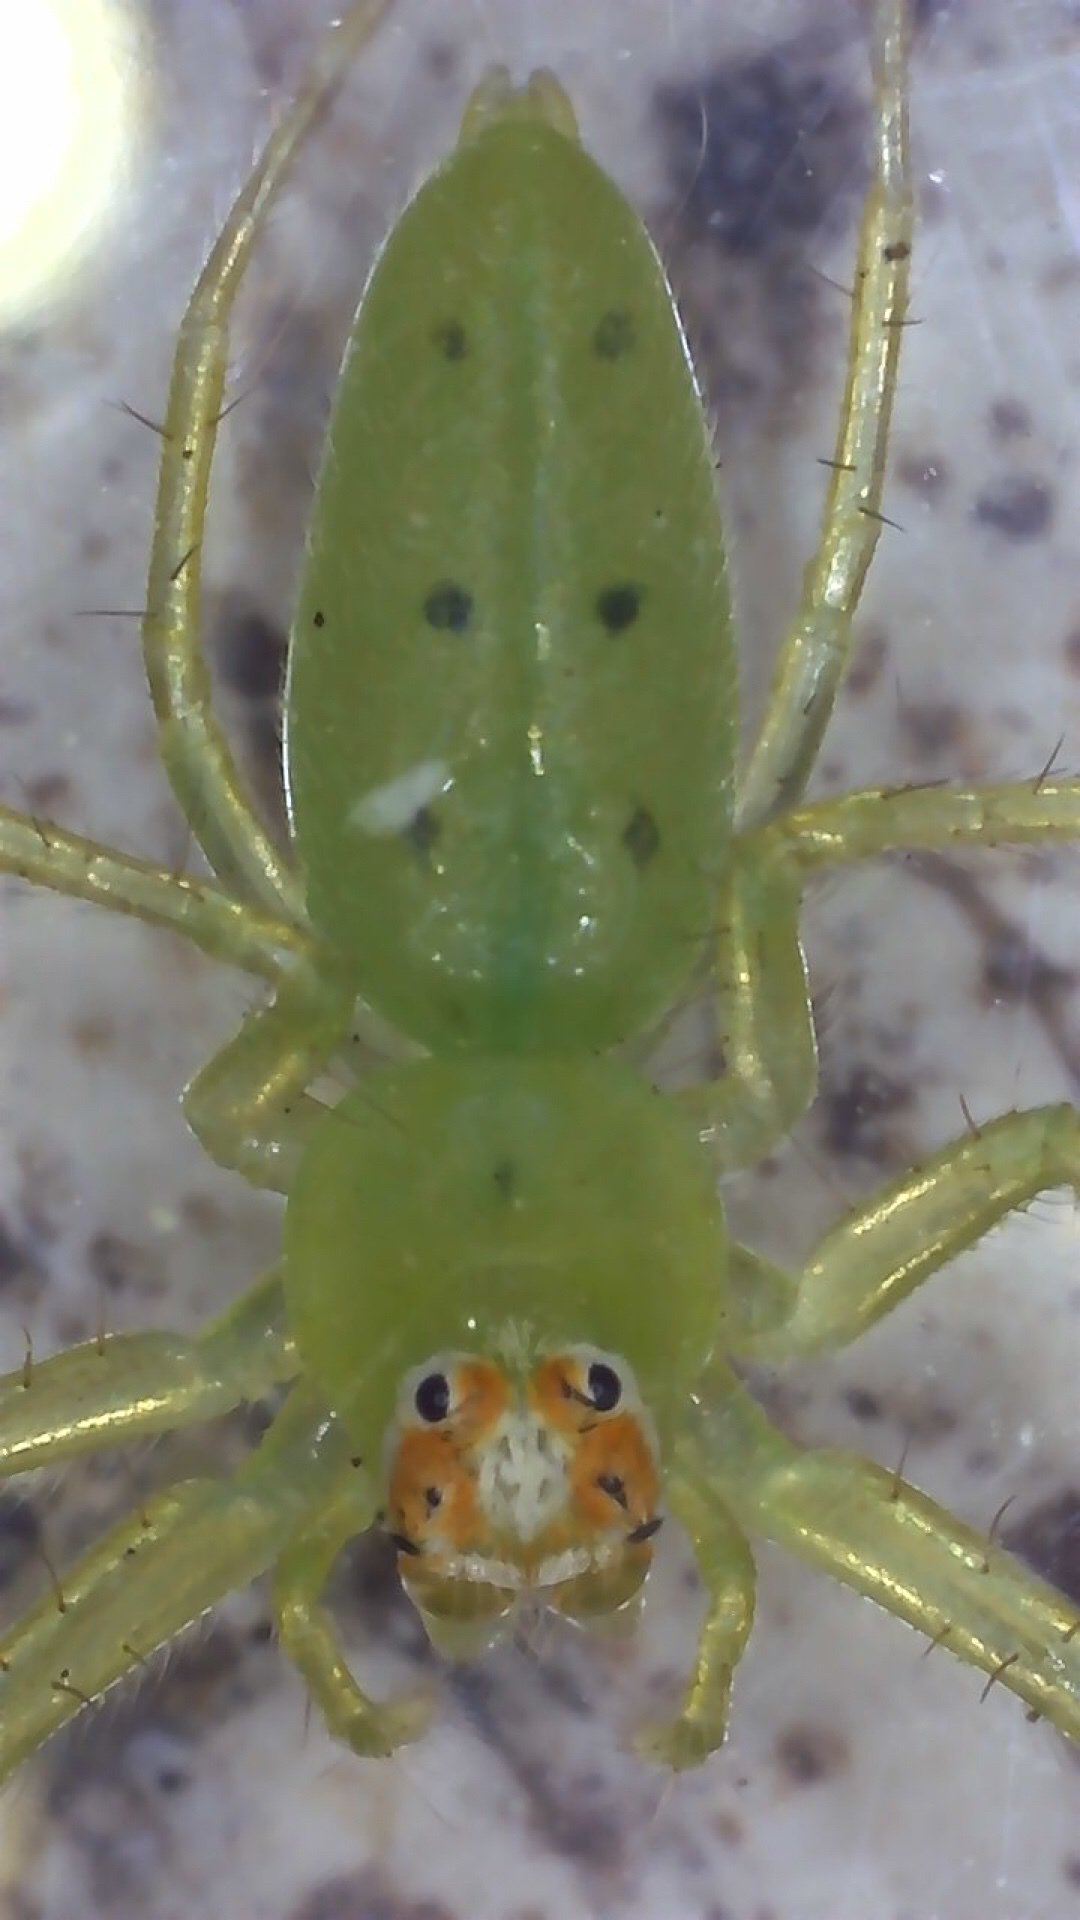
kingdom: Animalia
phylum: Arthropoda
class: Arachnida
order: Araneae
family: Salticidae
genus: Lyssomanes
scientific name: Lyssomanes viridis
